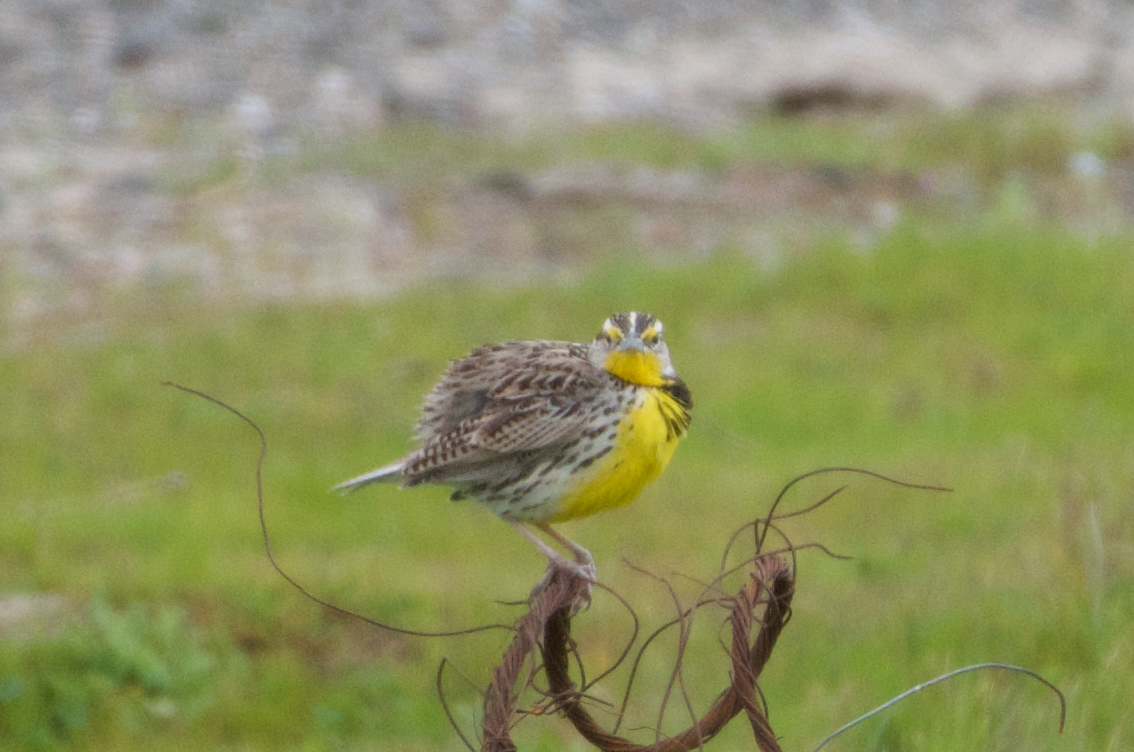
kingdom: Animalia
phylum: Chordata
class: Aves
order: Passeriformes
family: Icteridae
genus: Sturnella
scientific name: Sturnella neglecta
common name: Western meadowlark
